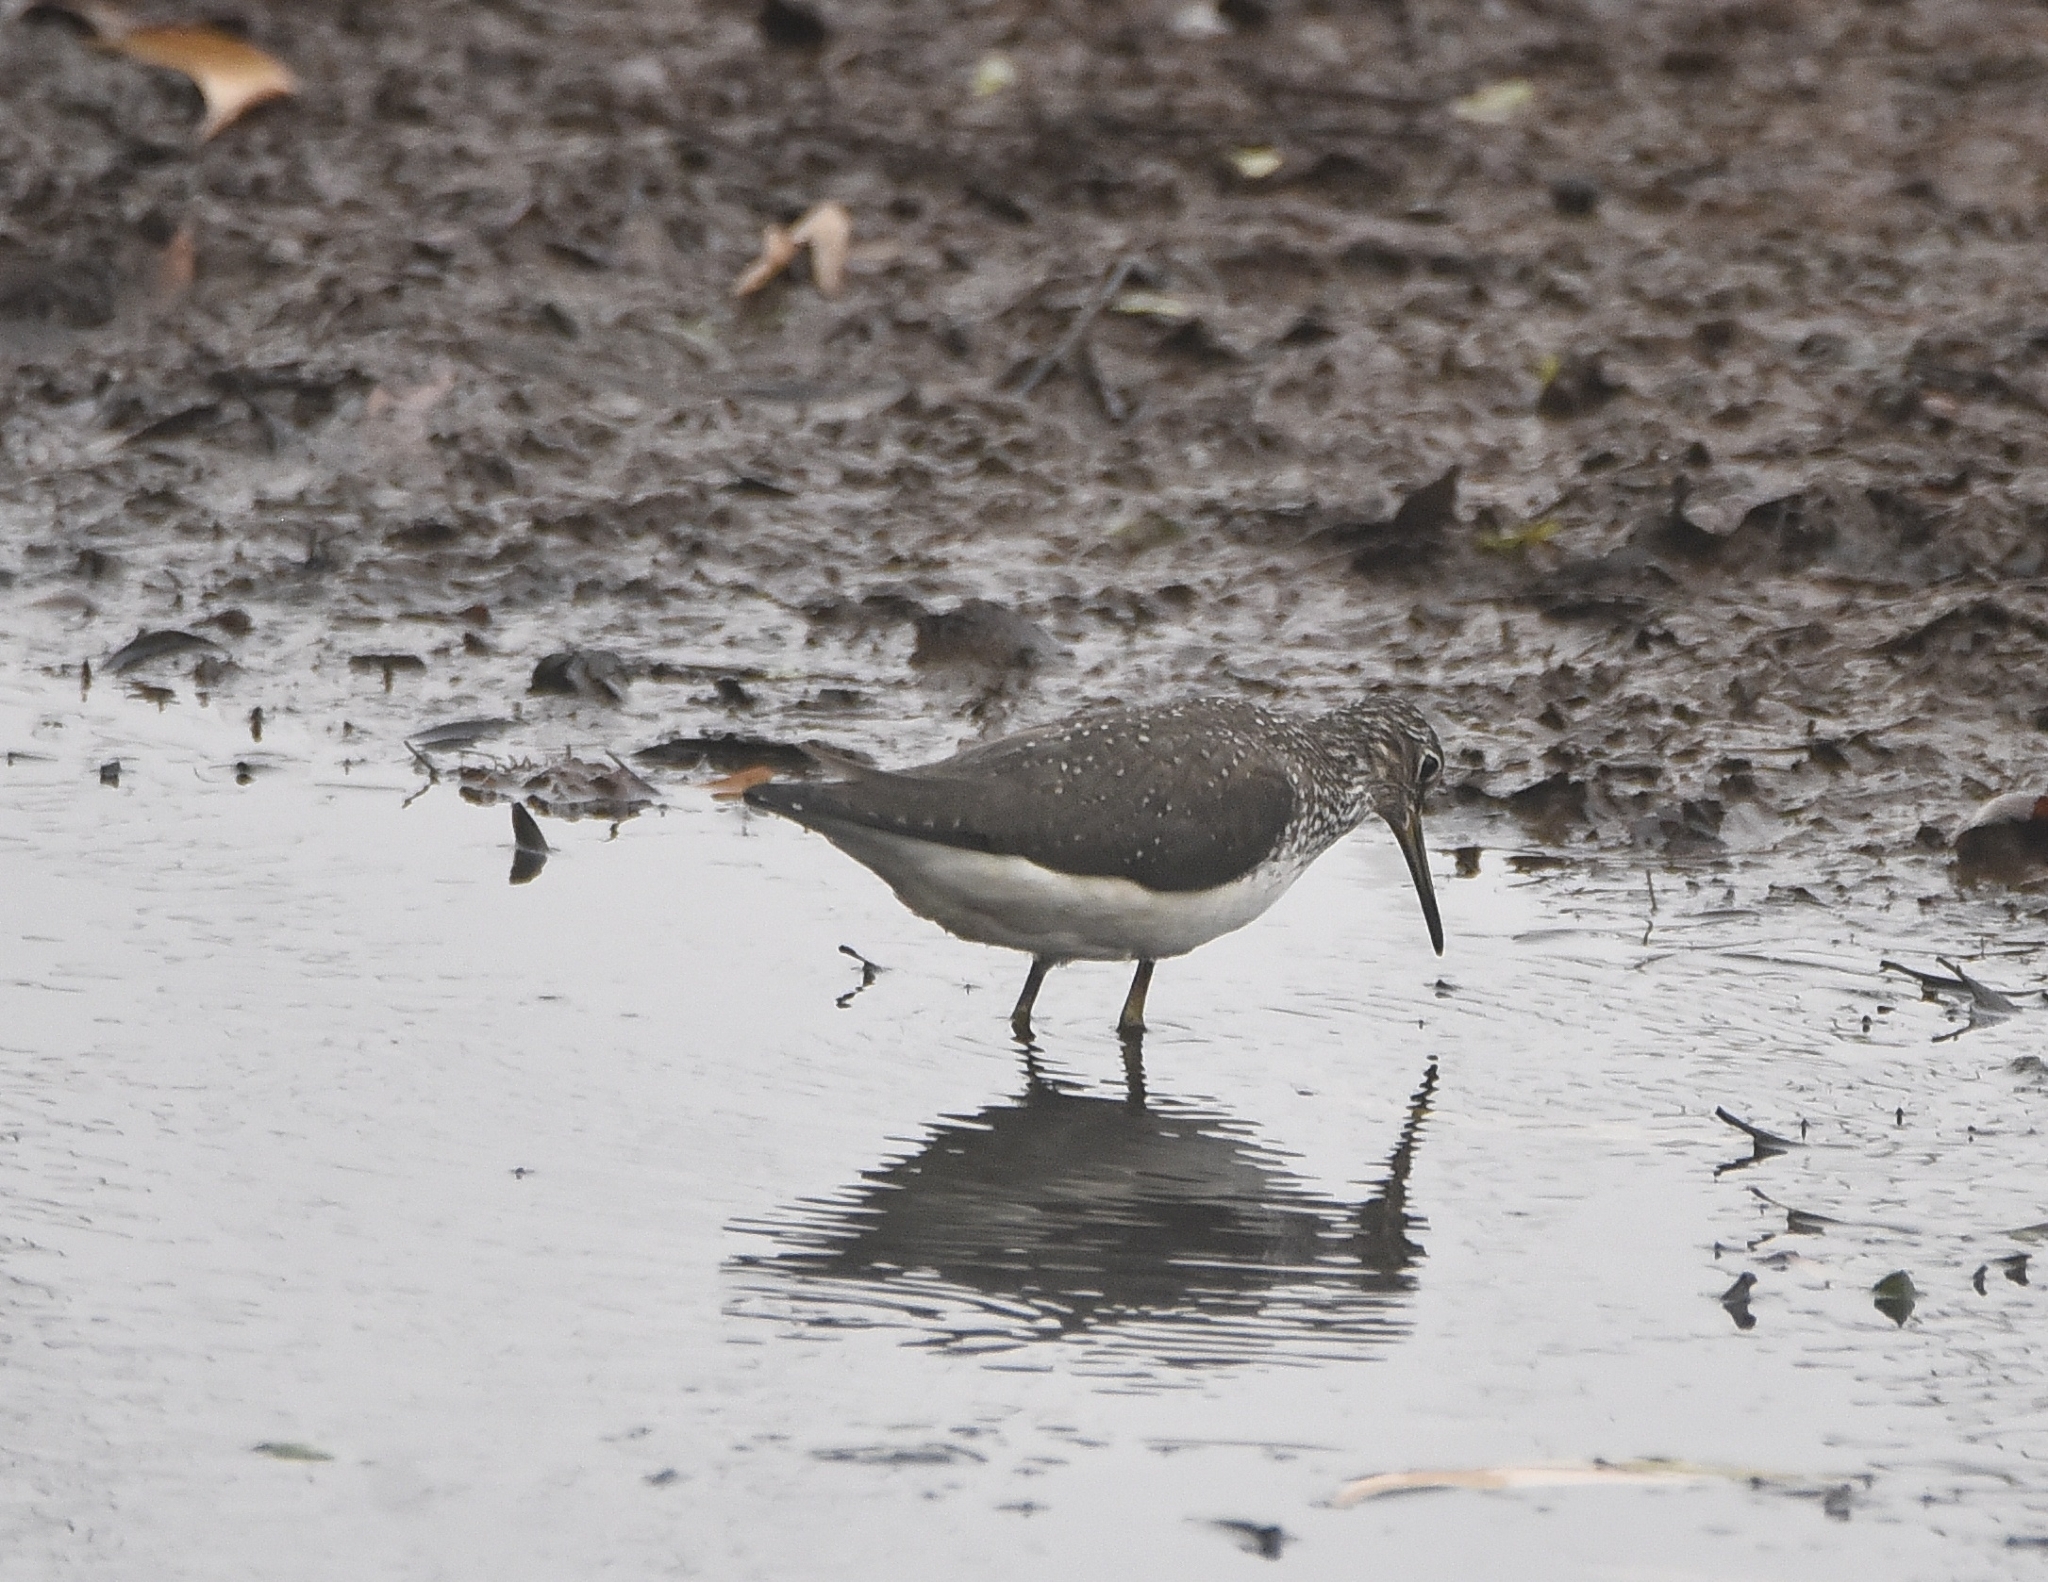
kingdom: Animalia
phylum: Chordata
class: Aves
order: Charadriiformes
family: Scolopacidae
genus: Tringa
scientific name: Tringa ochropus
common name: Green sandpiper
